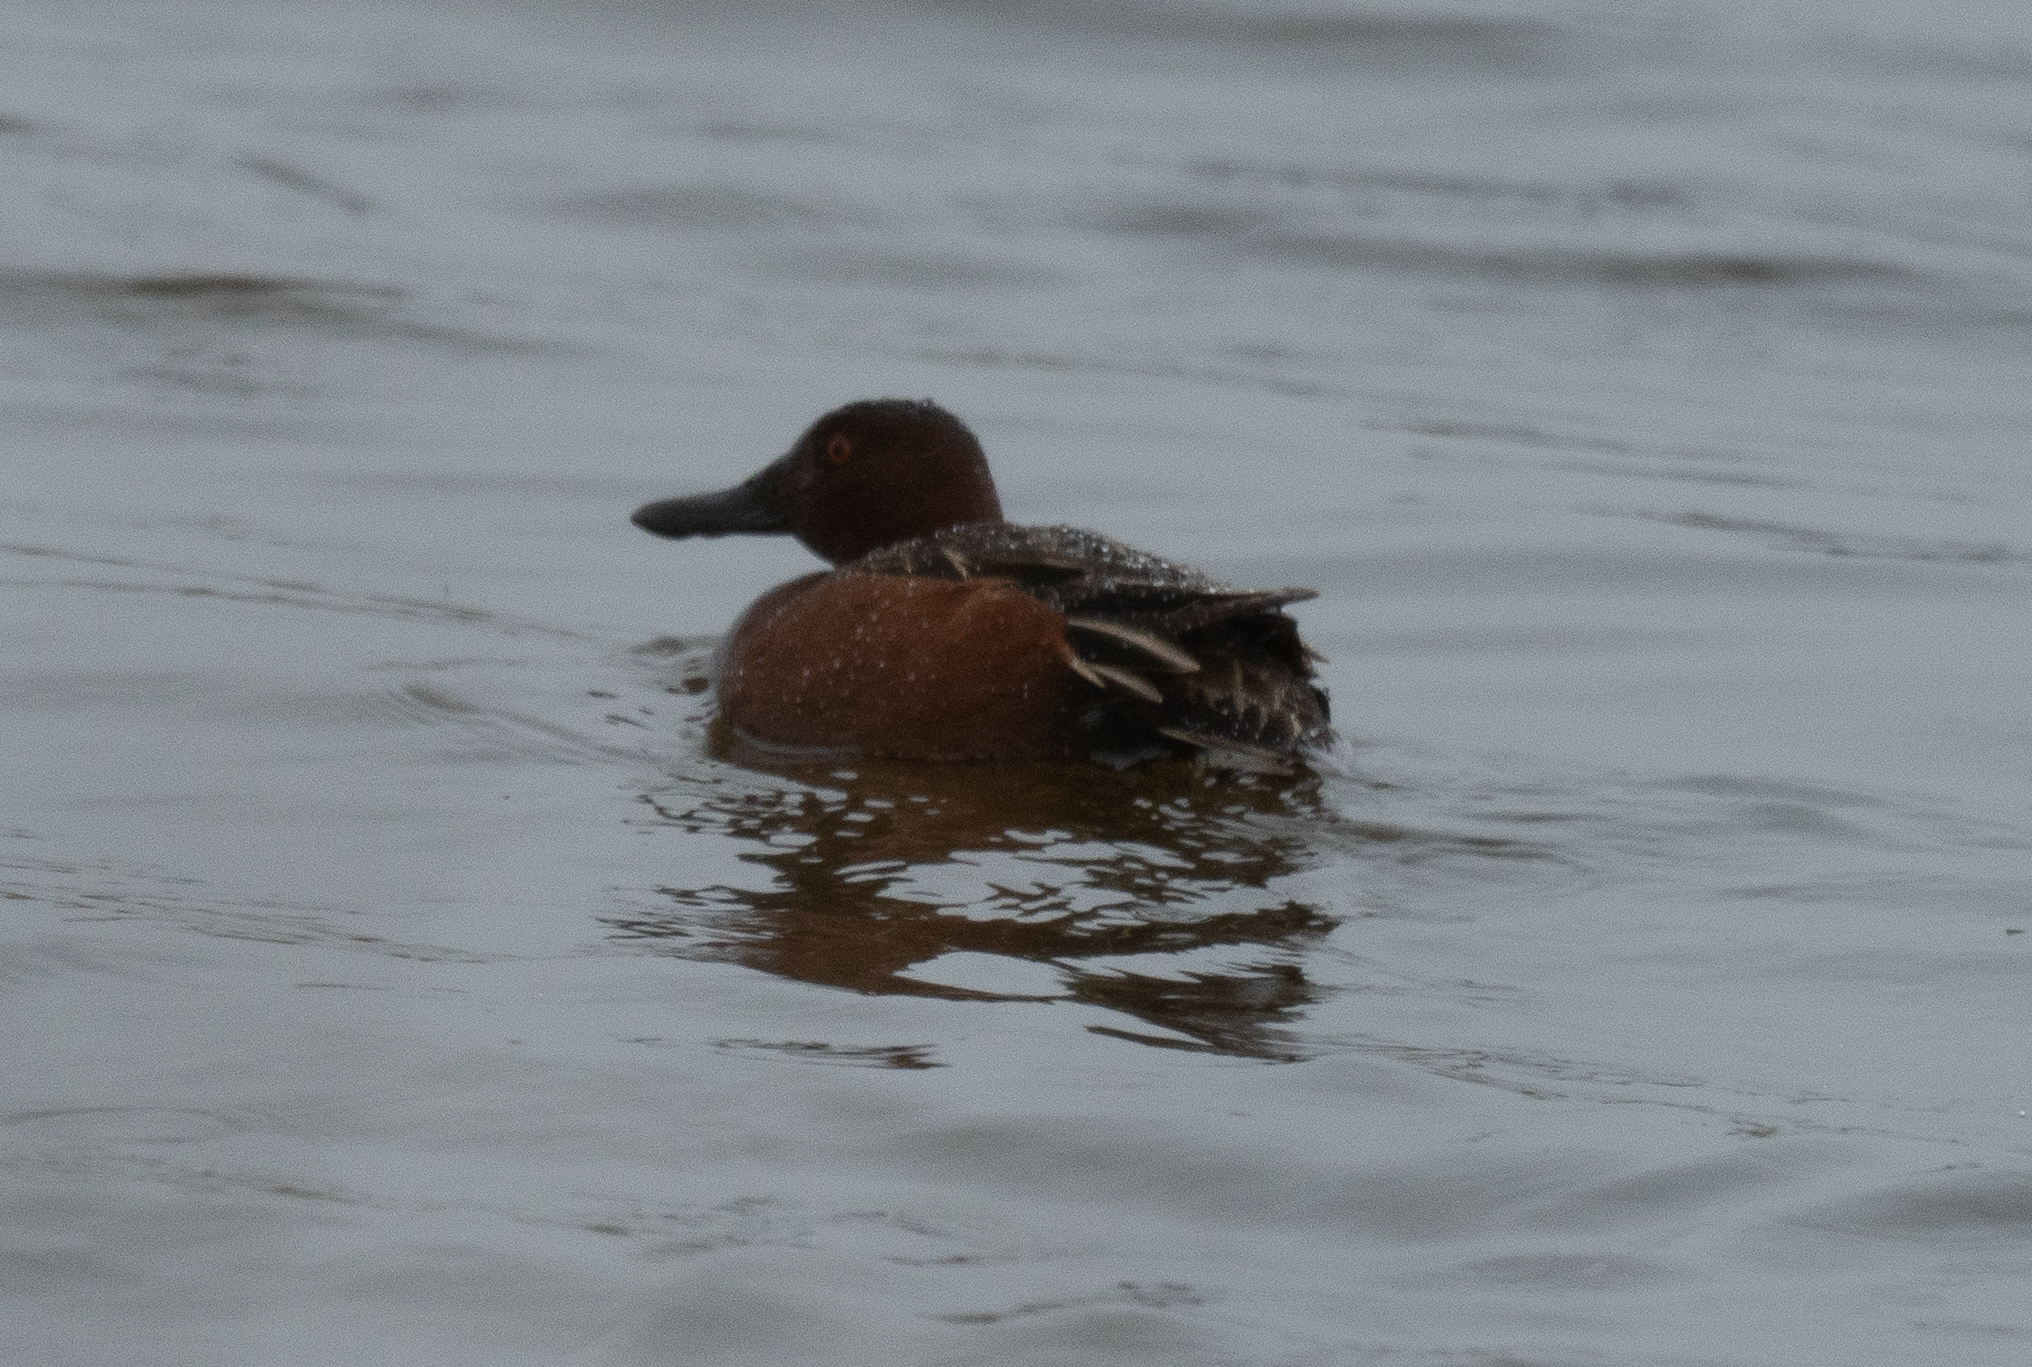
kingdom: Animalia
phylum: Chordata
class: Aves
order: Anseriformes
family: Anatidae
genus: Spatula
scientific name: Spatula cyanoptera
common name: Cinnamon teal
